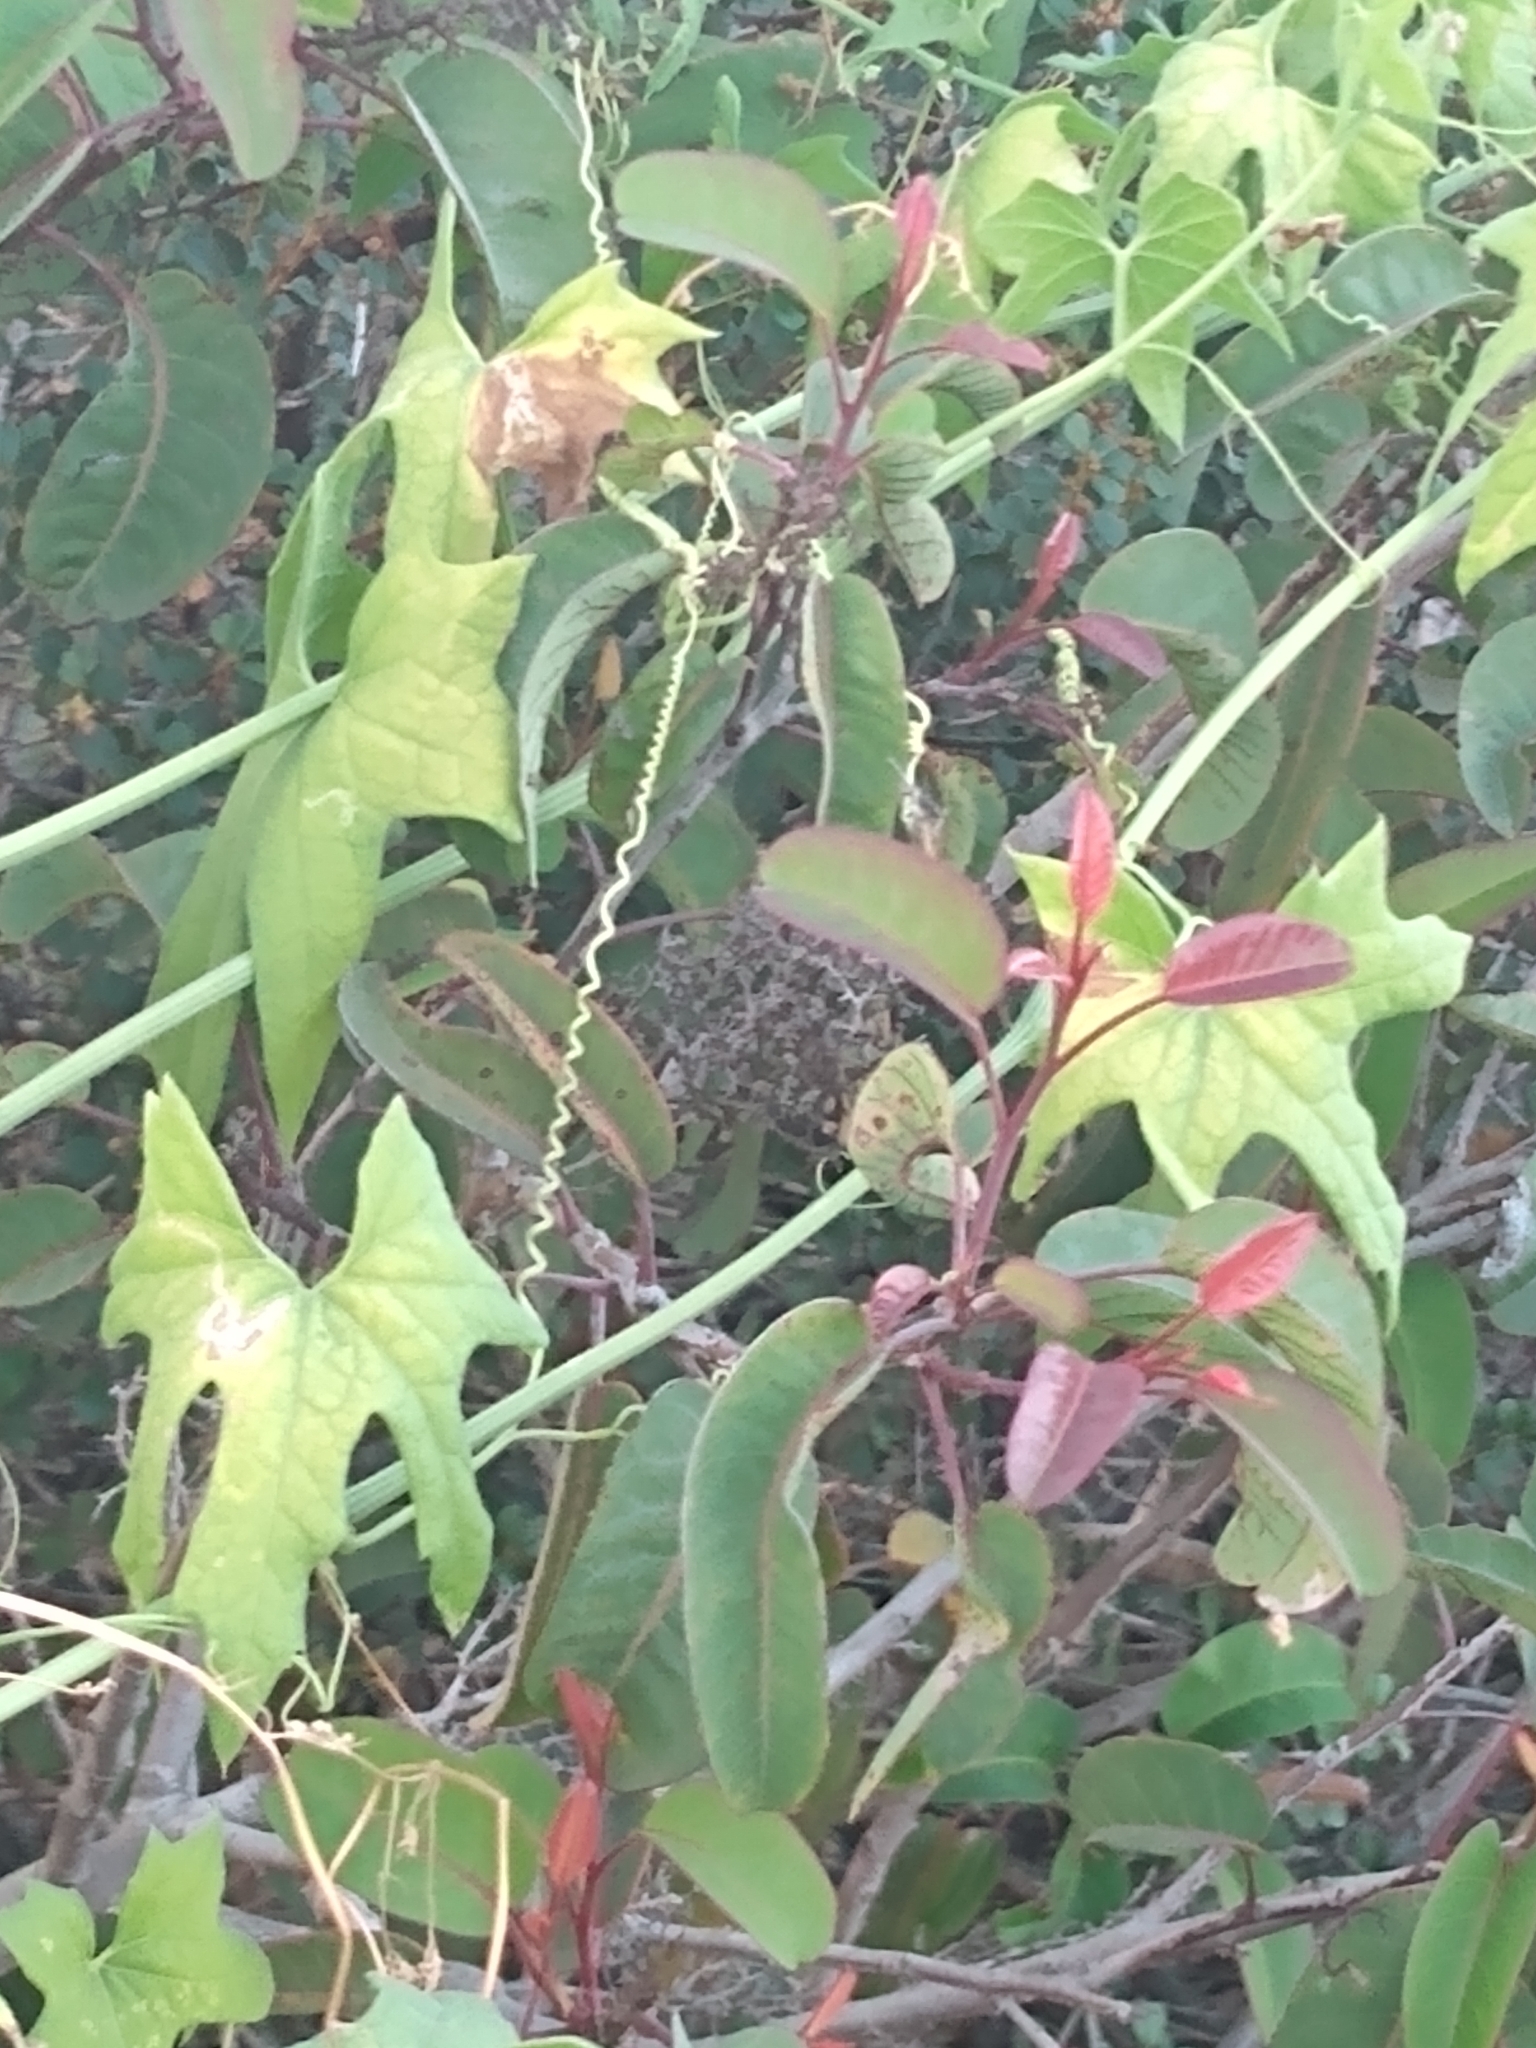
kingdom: Plantae
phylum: Tracheophyta
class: Magnoliopsida
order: Cucurbitales
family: Cucurbitaceae
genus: Marah
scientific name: Marah macrocarpa
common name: Cucamonga manroot
